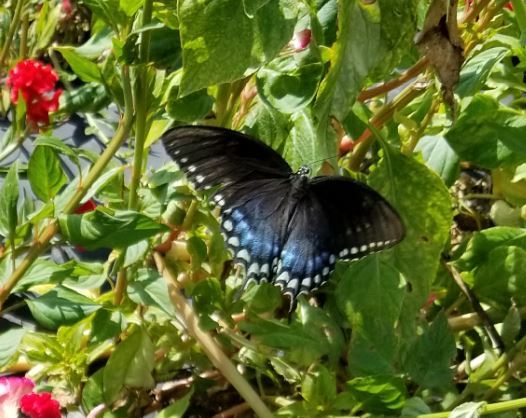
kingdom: Animalia
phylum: Arthropoda
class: Insecta
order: Lepidoptera
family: Papilionidae
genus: Papilio
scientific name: Papilio troilus
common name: Spicebush swallowtail
